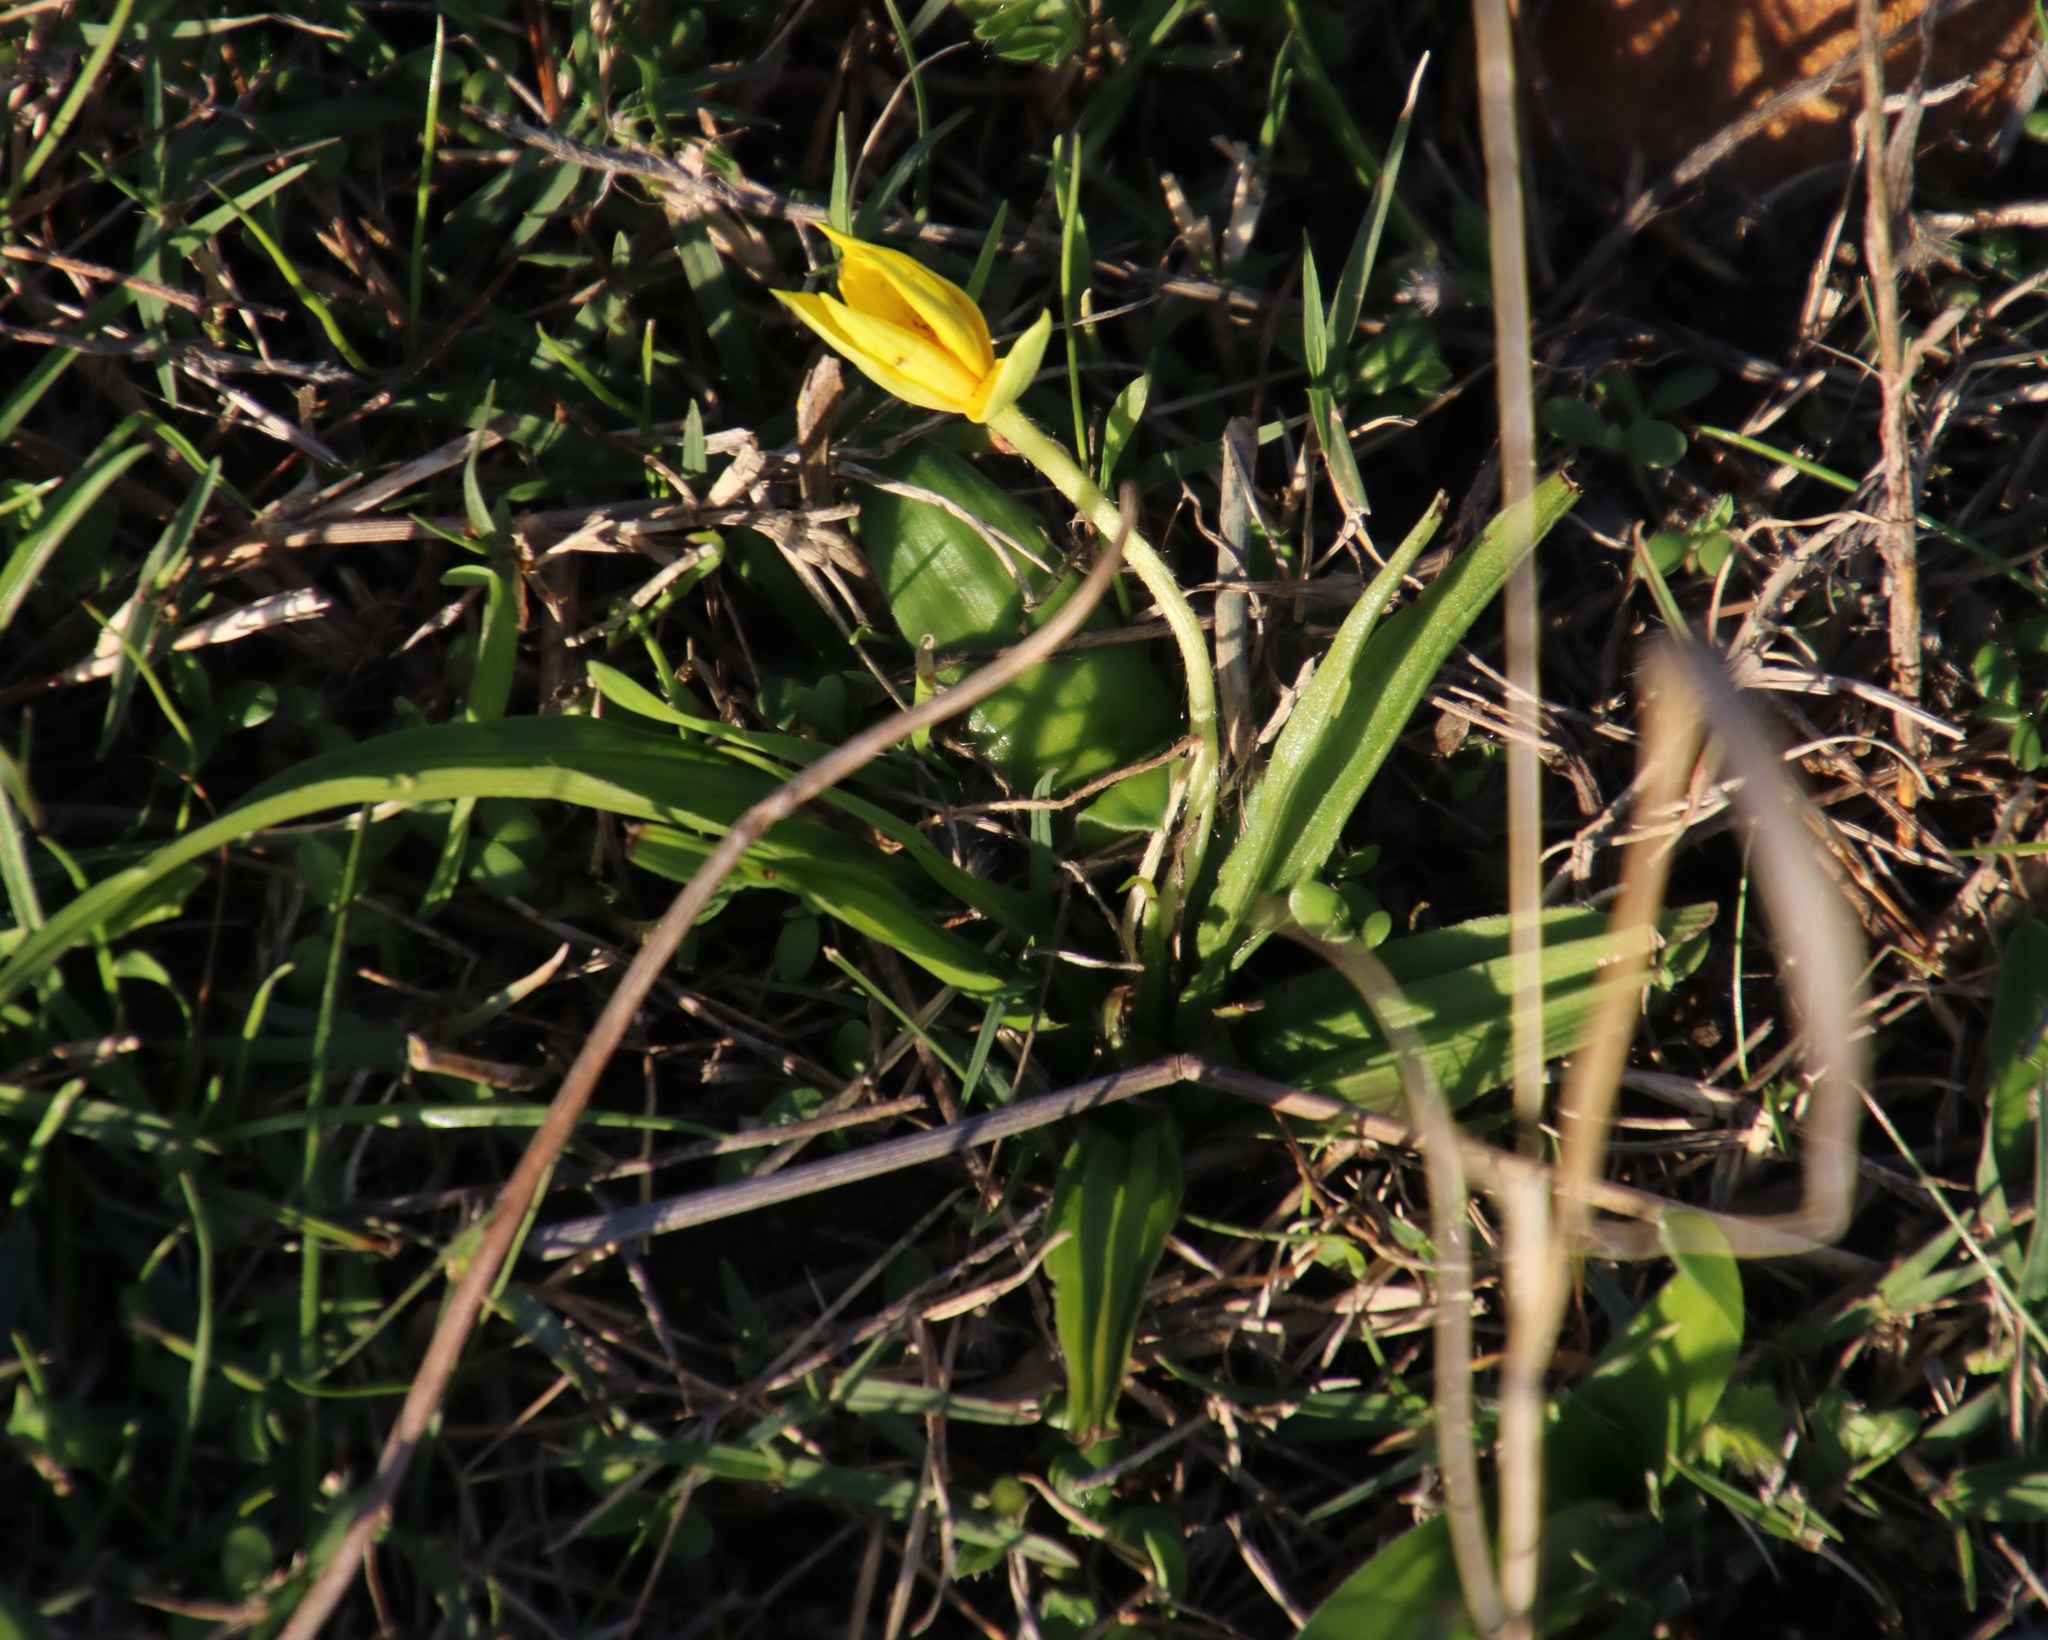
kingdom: Plantae
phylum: Tracheophyta
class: Liliopsida
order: Asparagales
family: Hypoxidaceae
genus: Empodium
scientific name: Empodium plicatum
